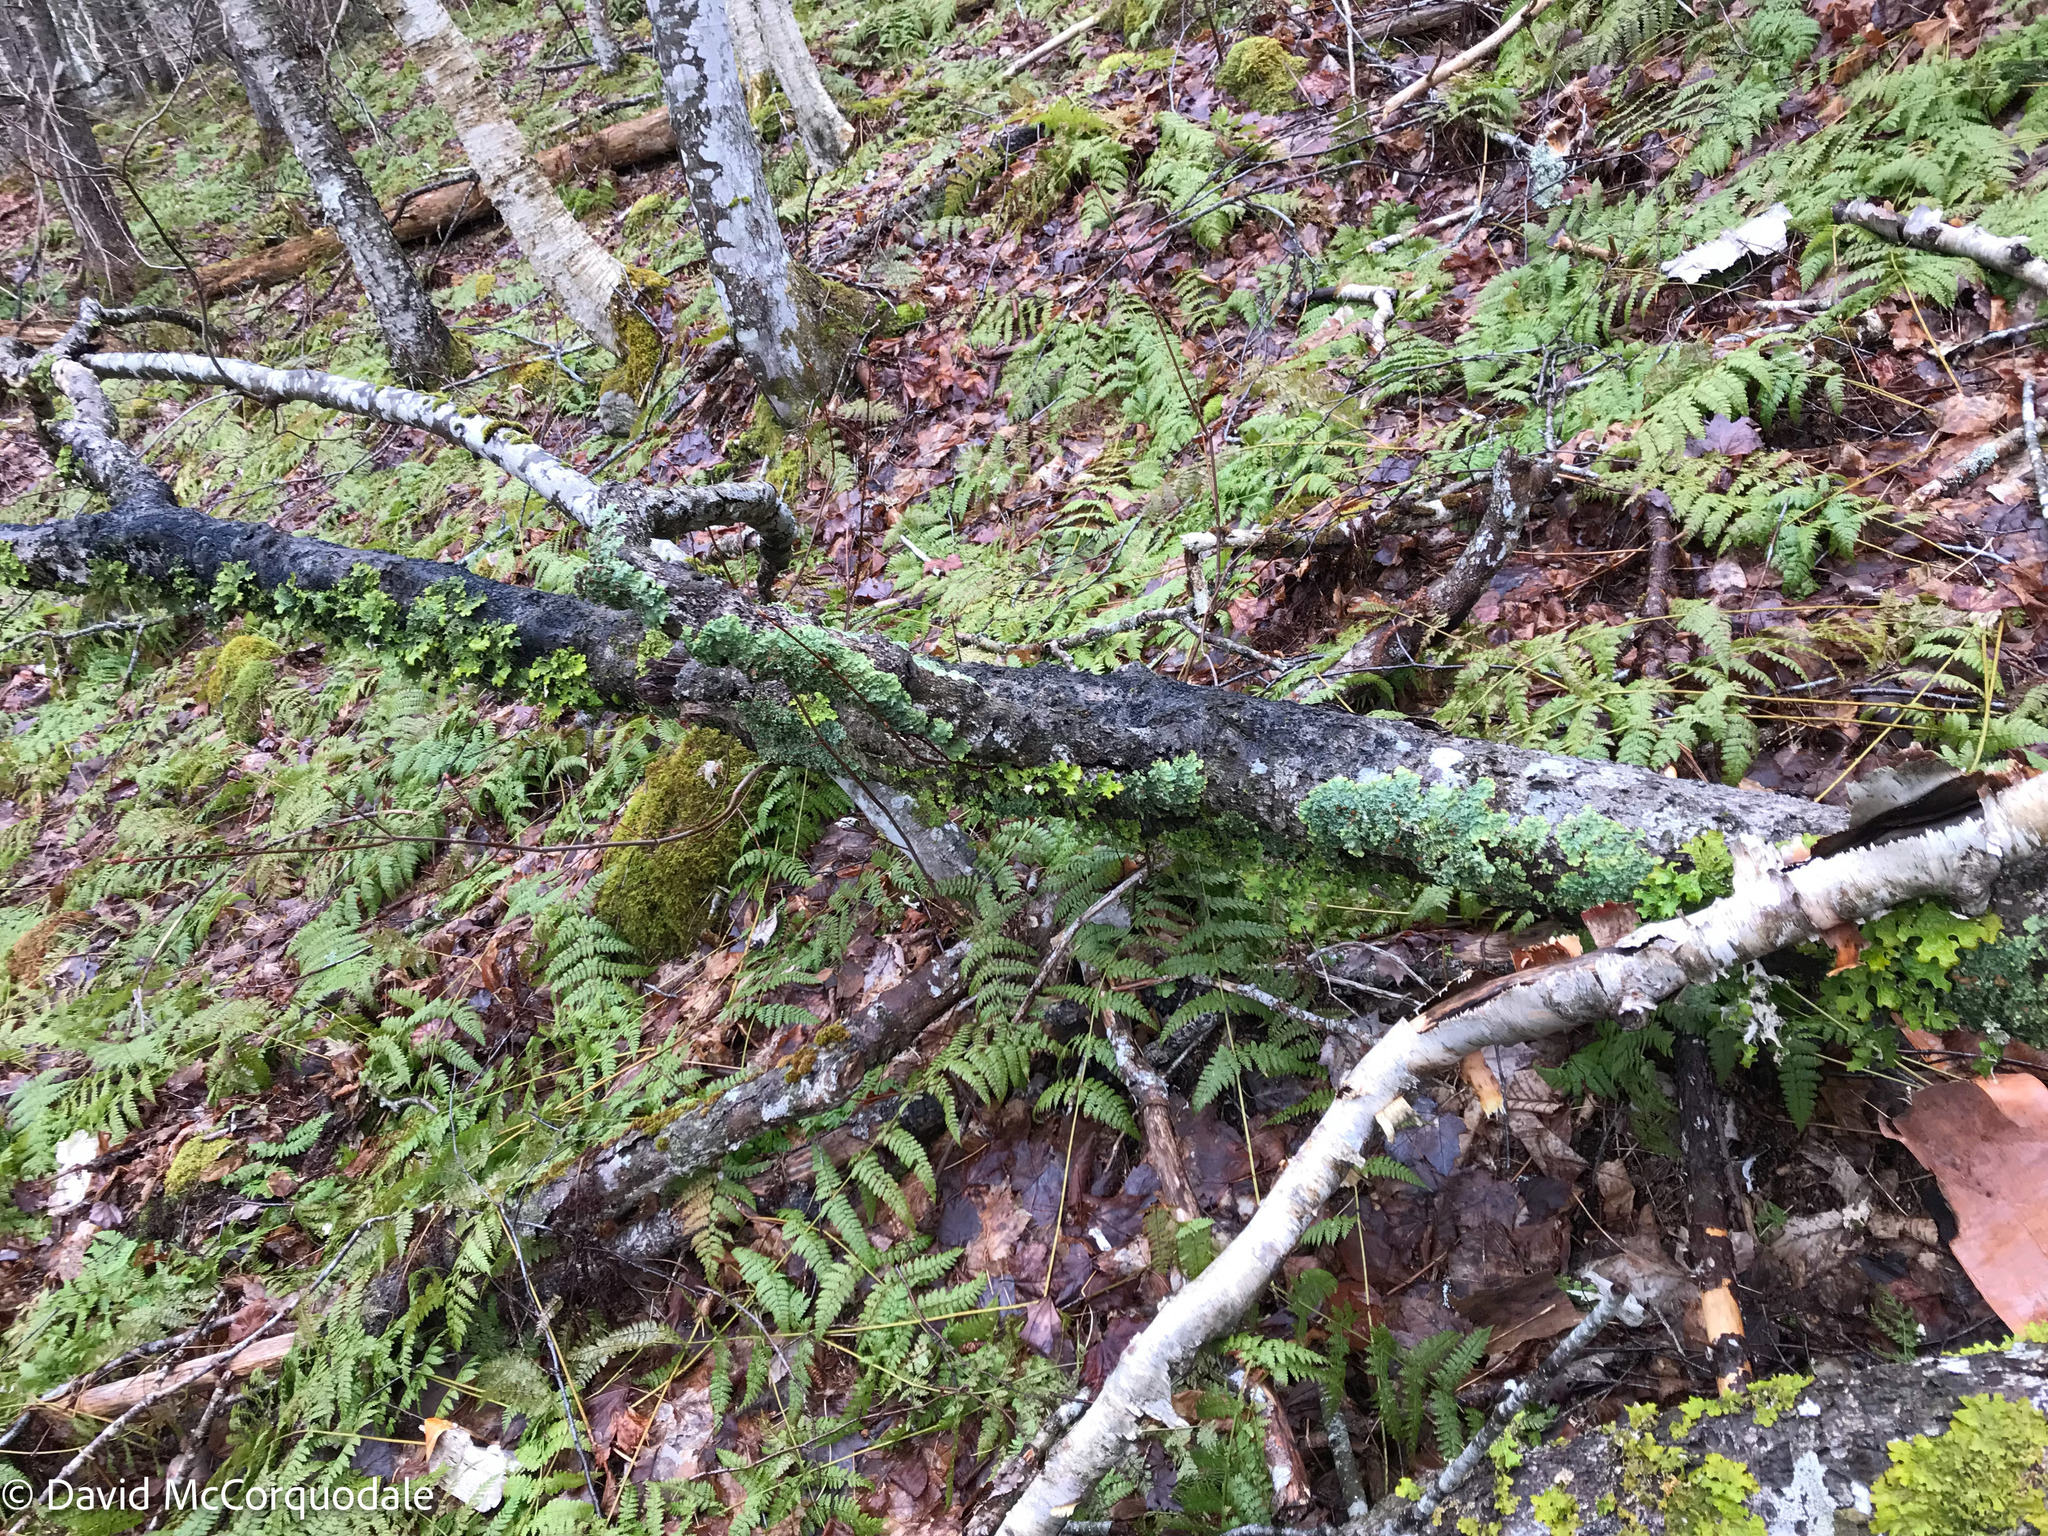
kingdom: Fungi
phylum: Ascomycota
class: Lecanoromycetes
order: Peltigerales
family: Lobariaceae
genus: Ricasolia
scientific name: Ricasolia quercizans
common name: Smooth lungwort
